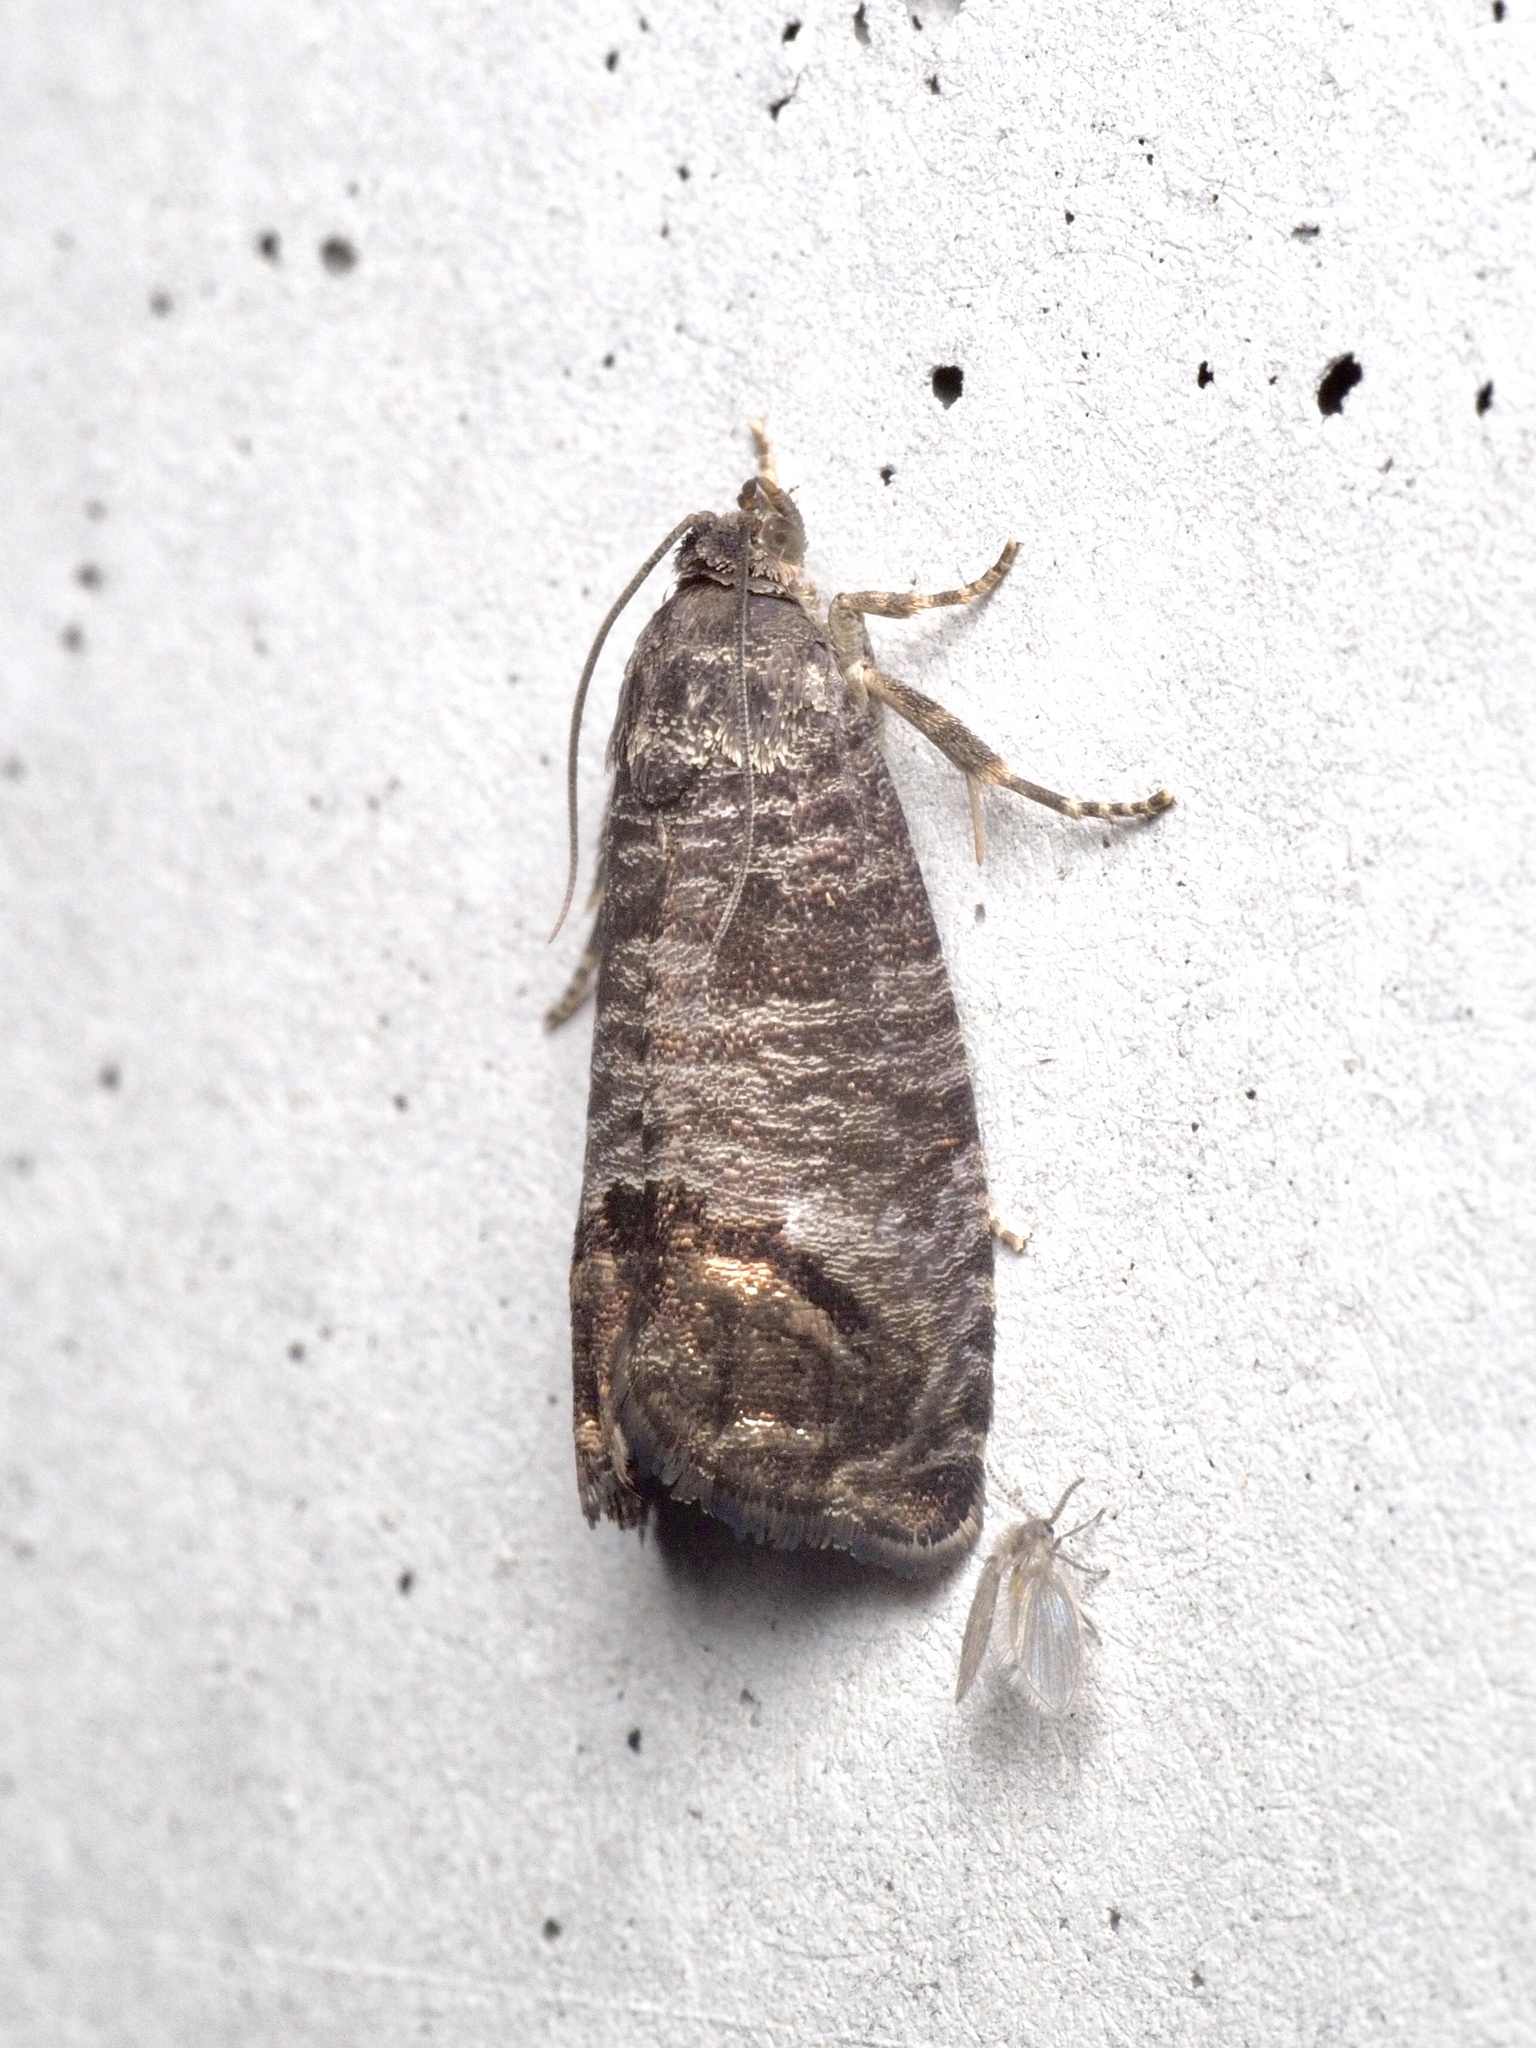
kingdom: Animalia
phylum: Arthropoda
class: Insecta
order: Lepidoptera
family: Tortricidae
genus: Cydia
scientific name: Cydia pomonella
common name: Codling moth
